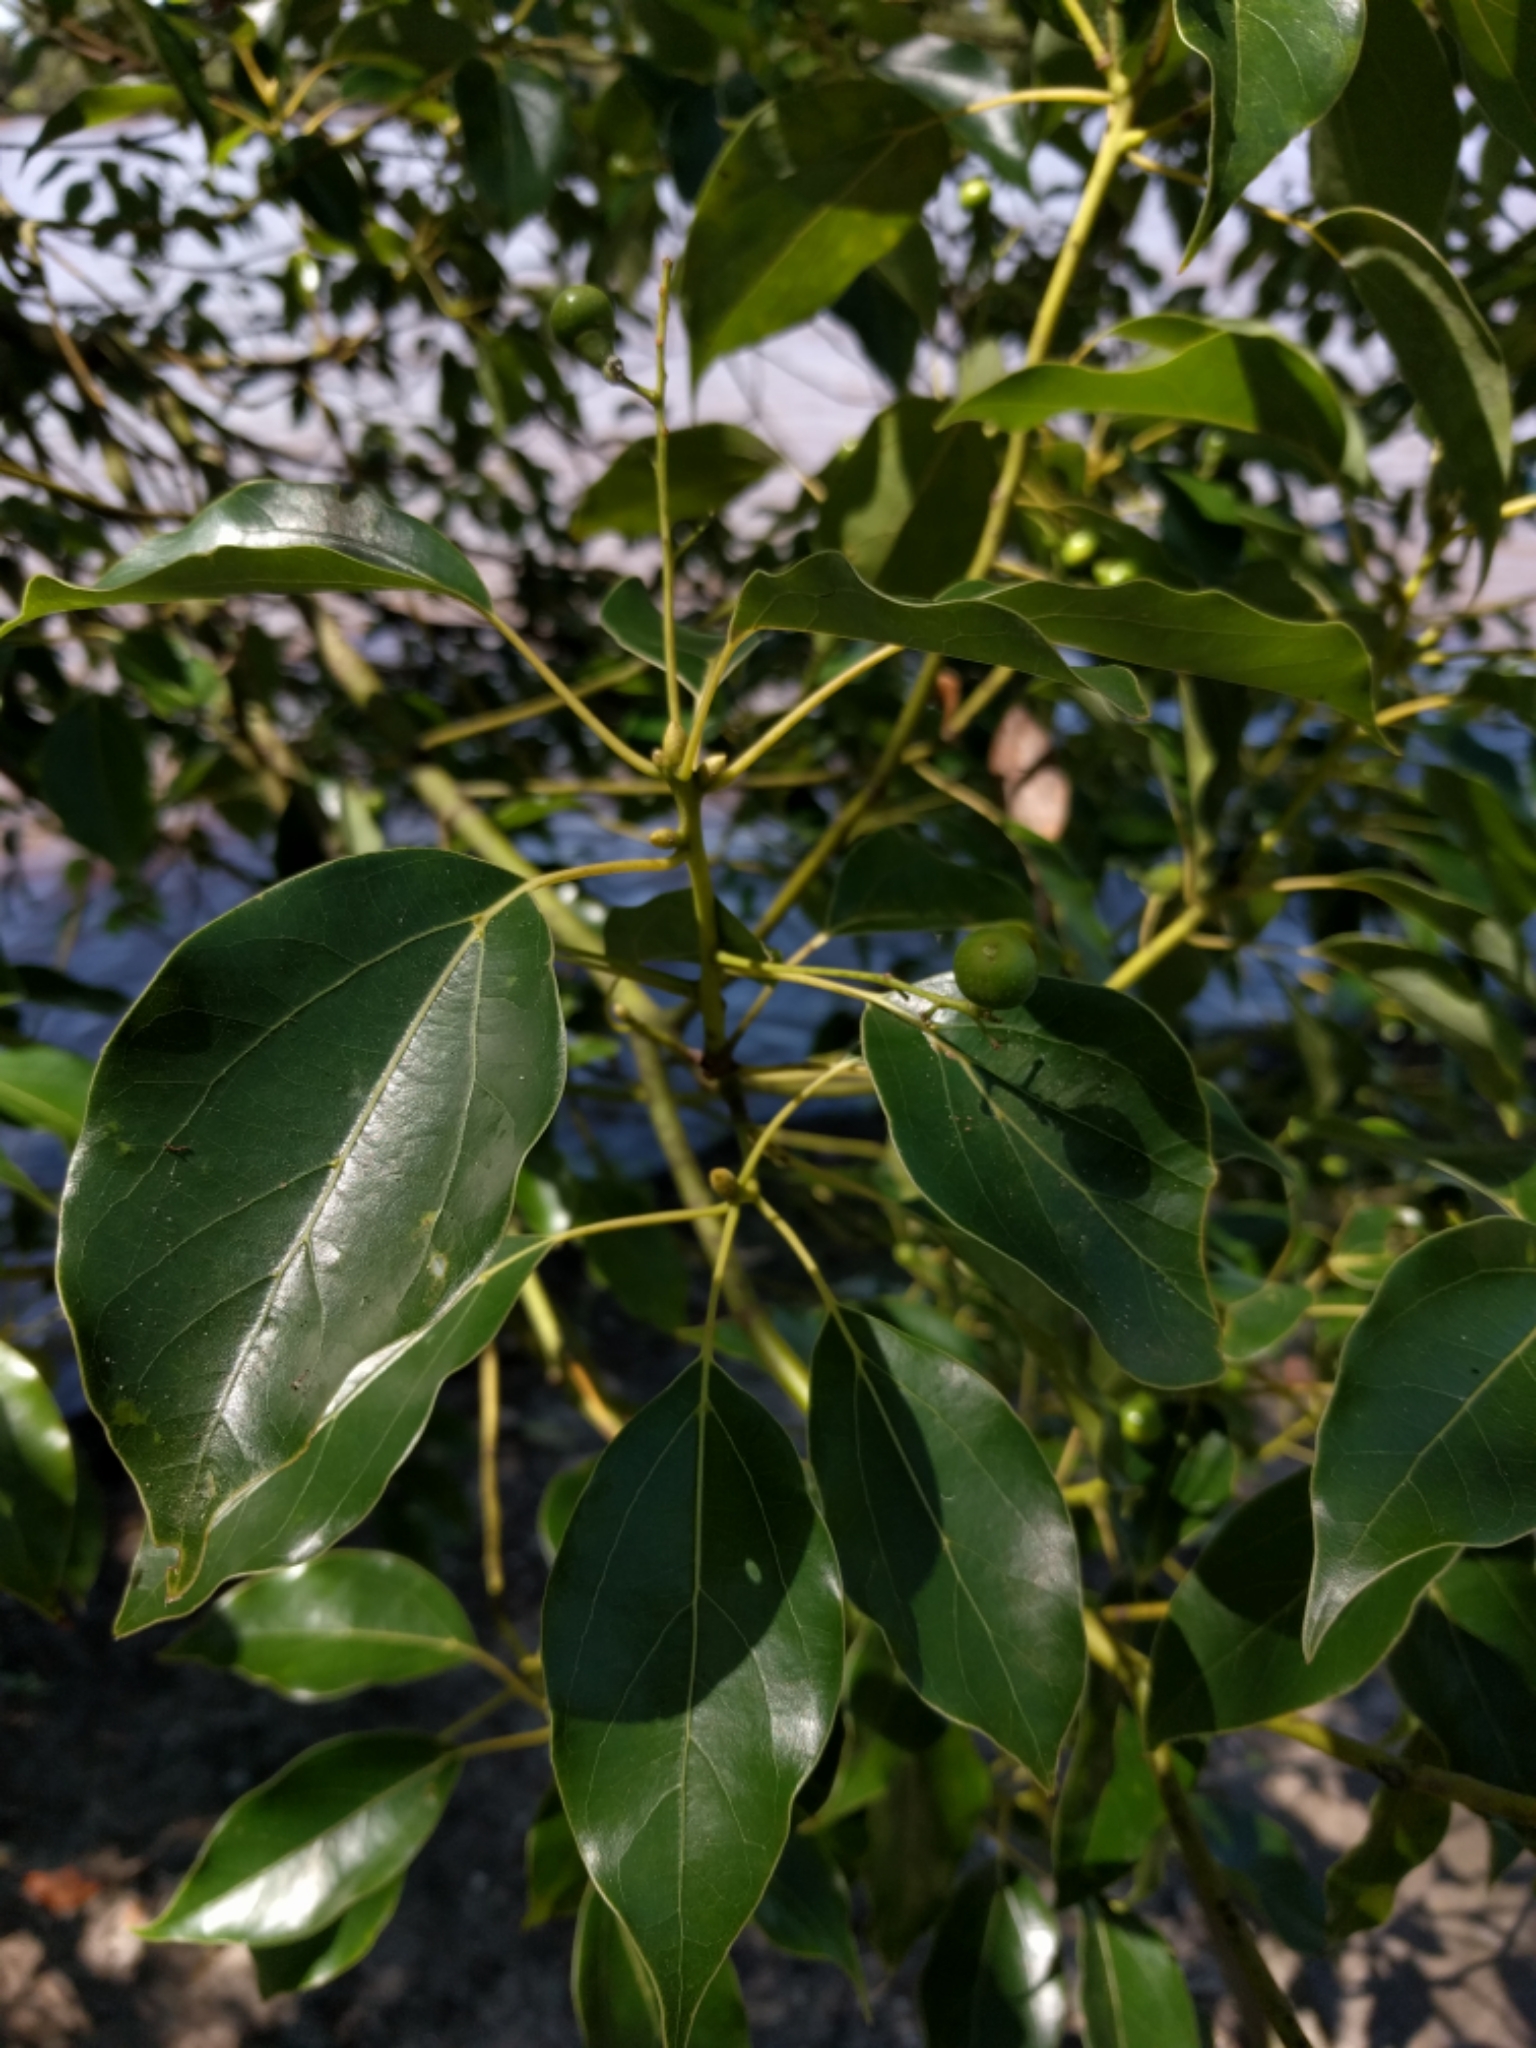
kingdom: Plantae
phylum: Tracheophyta
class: Magnoliopsida
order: Laurales
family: Lauraceae
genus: Cinnamomum
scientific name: Cinnamomum camphora
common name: Camphortree
